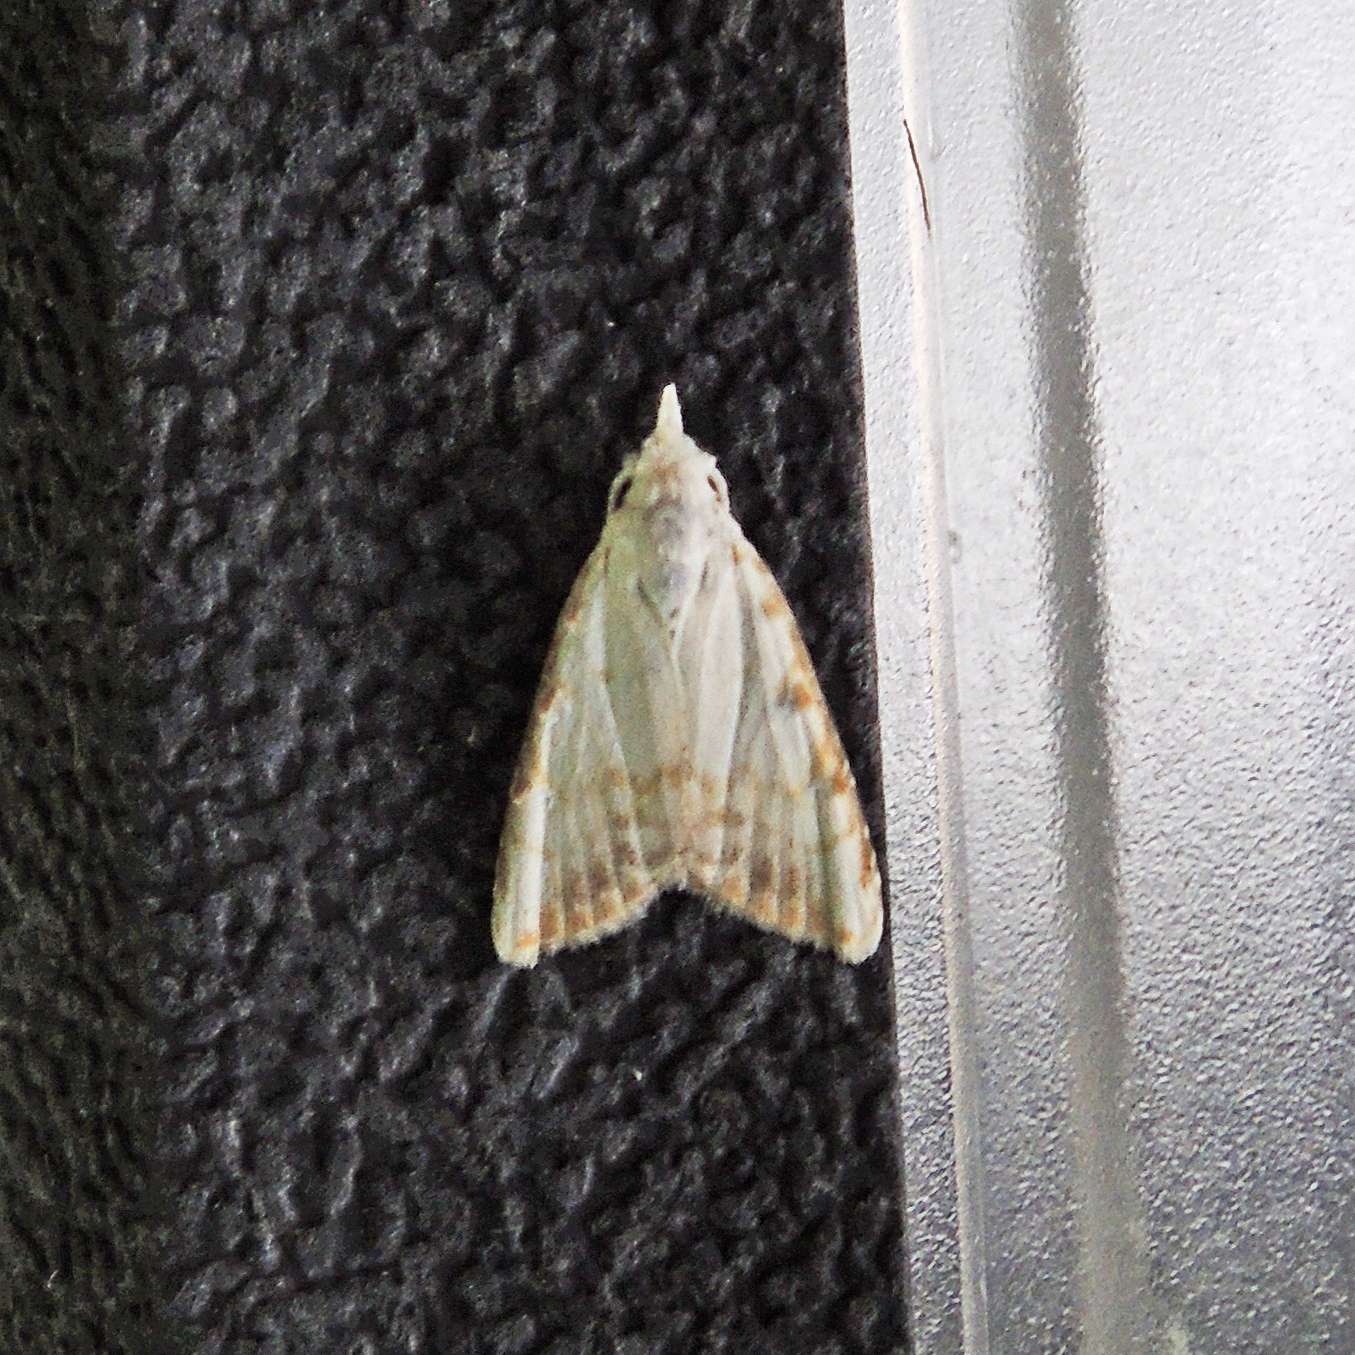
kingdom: Animalia
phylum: Arthropoda
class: Insecta
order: Lepidoptera
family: Nolidae
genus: Nola
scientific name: Nola cereella
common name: Sorghum webworm moth
